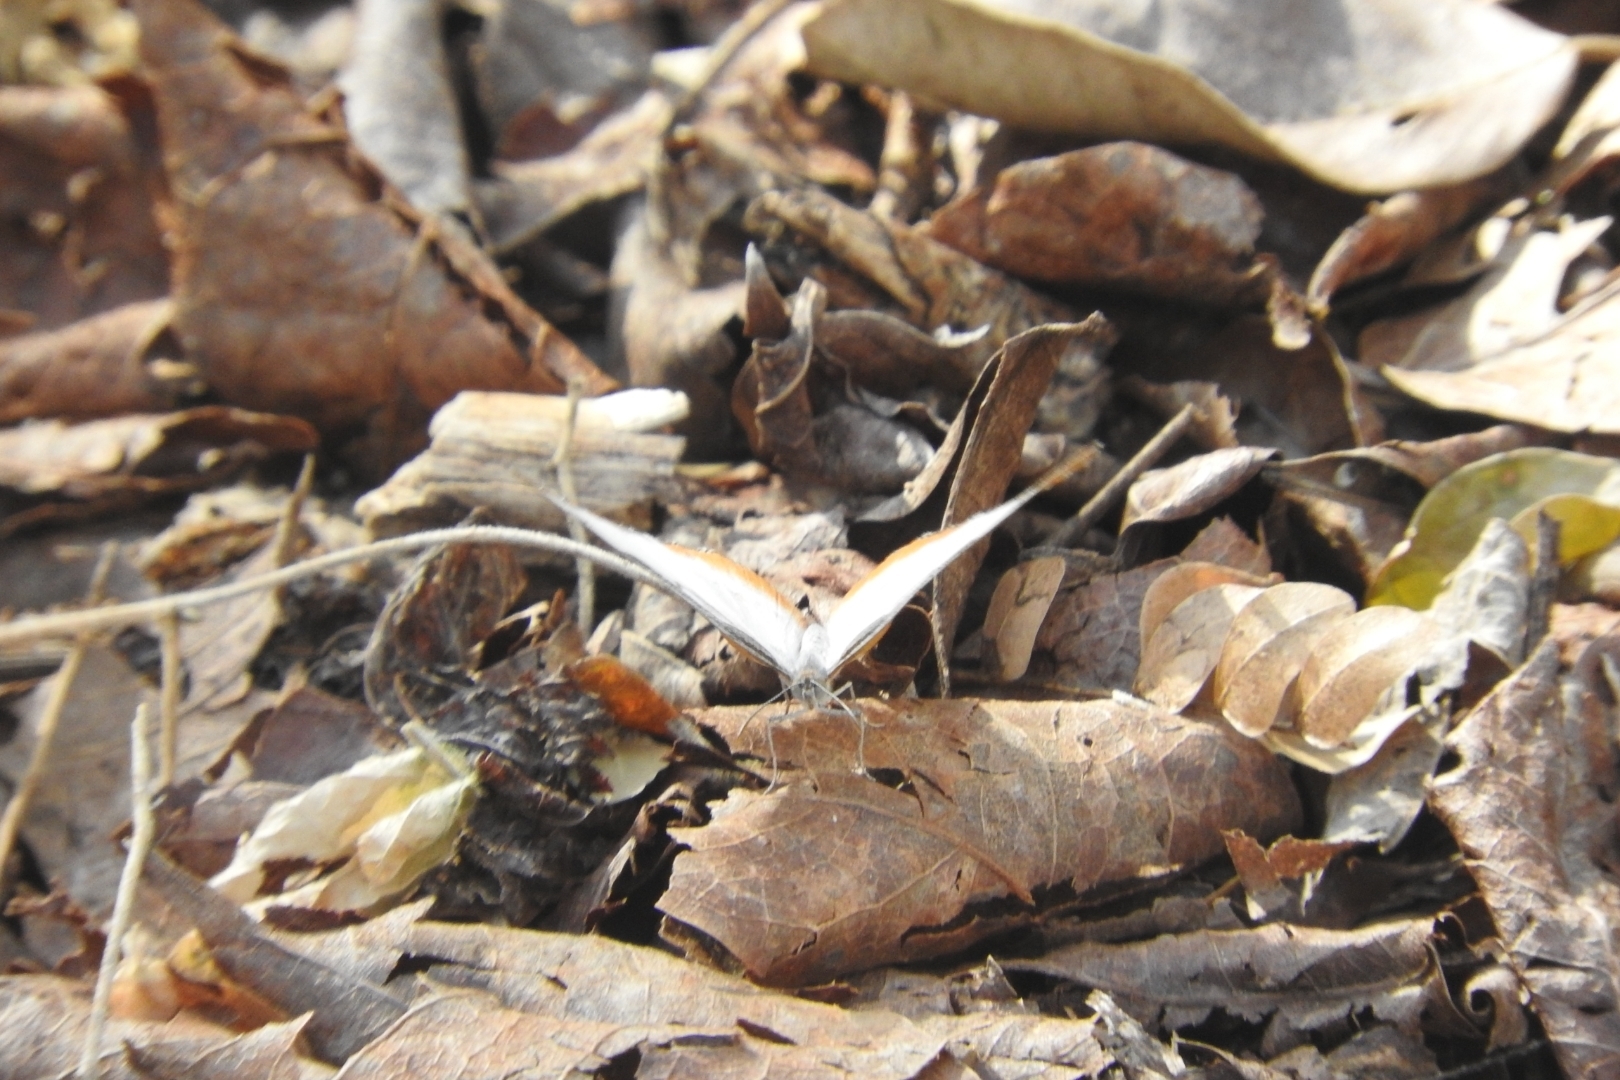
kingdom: Animalia
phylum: Arthropoda
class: Insecta
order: Lepidoptera
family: Nymphalidae
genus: Mestra
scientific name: Mestra amymone
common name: Common mestra
